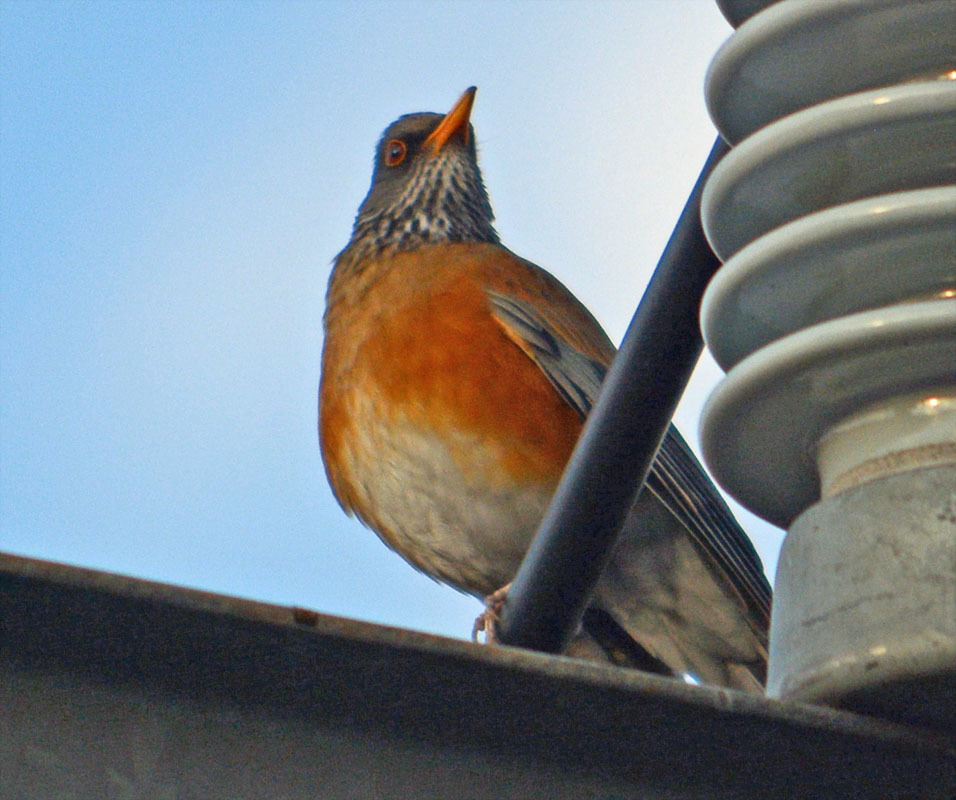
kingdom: Animalia
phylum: Chordata
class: Aves
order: Passeriformes
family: Turdidae
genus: Turdus
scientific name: Turdus rufopalliatus
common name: Rufous-backed robin
